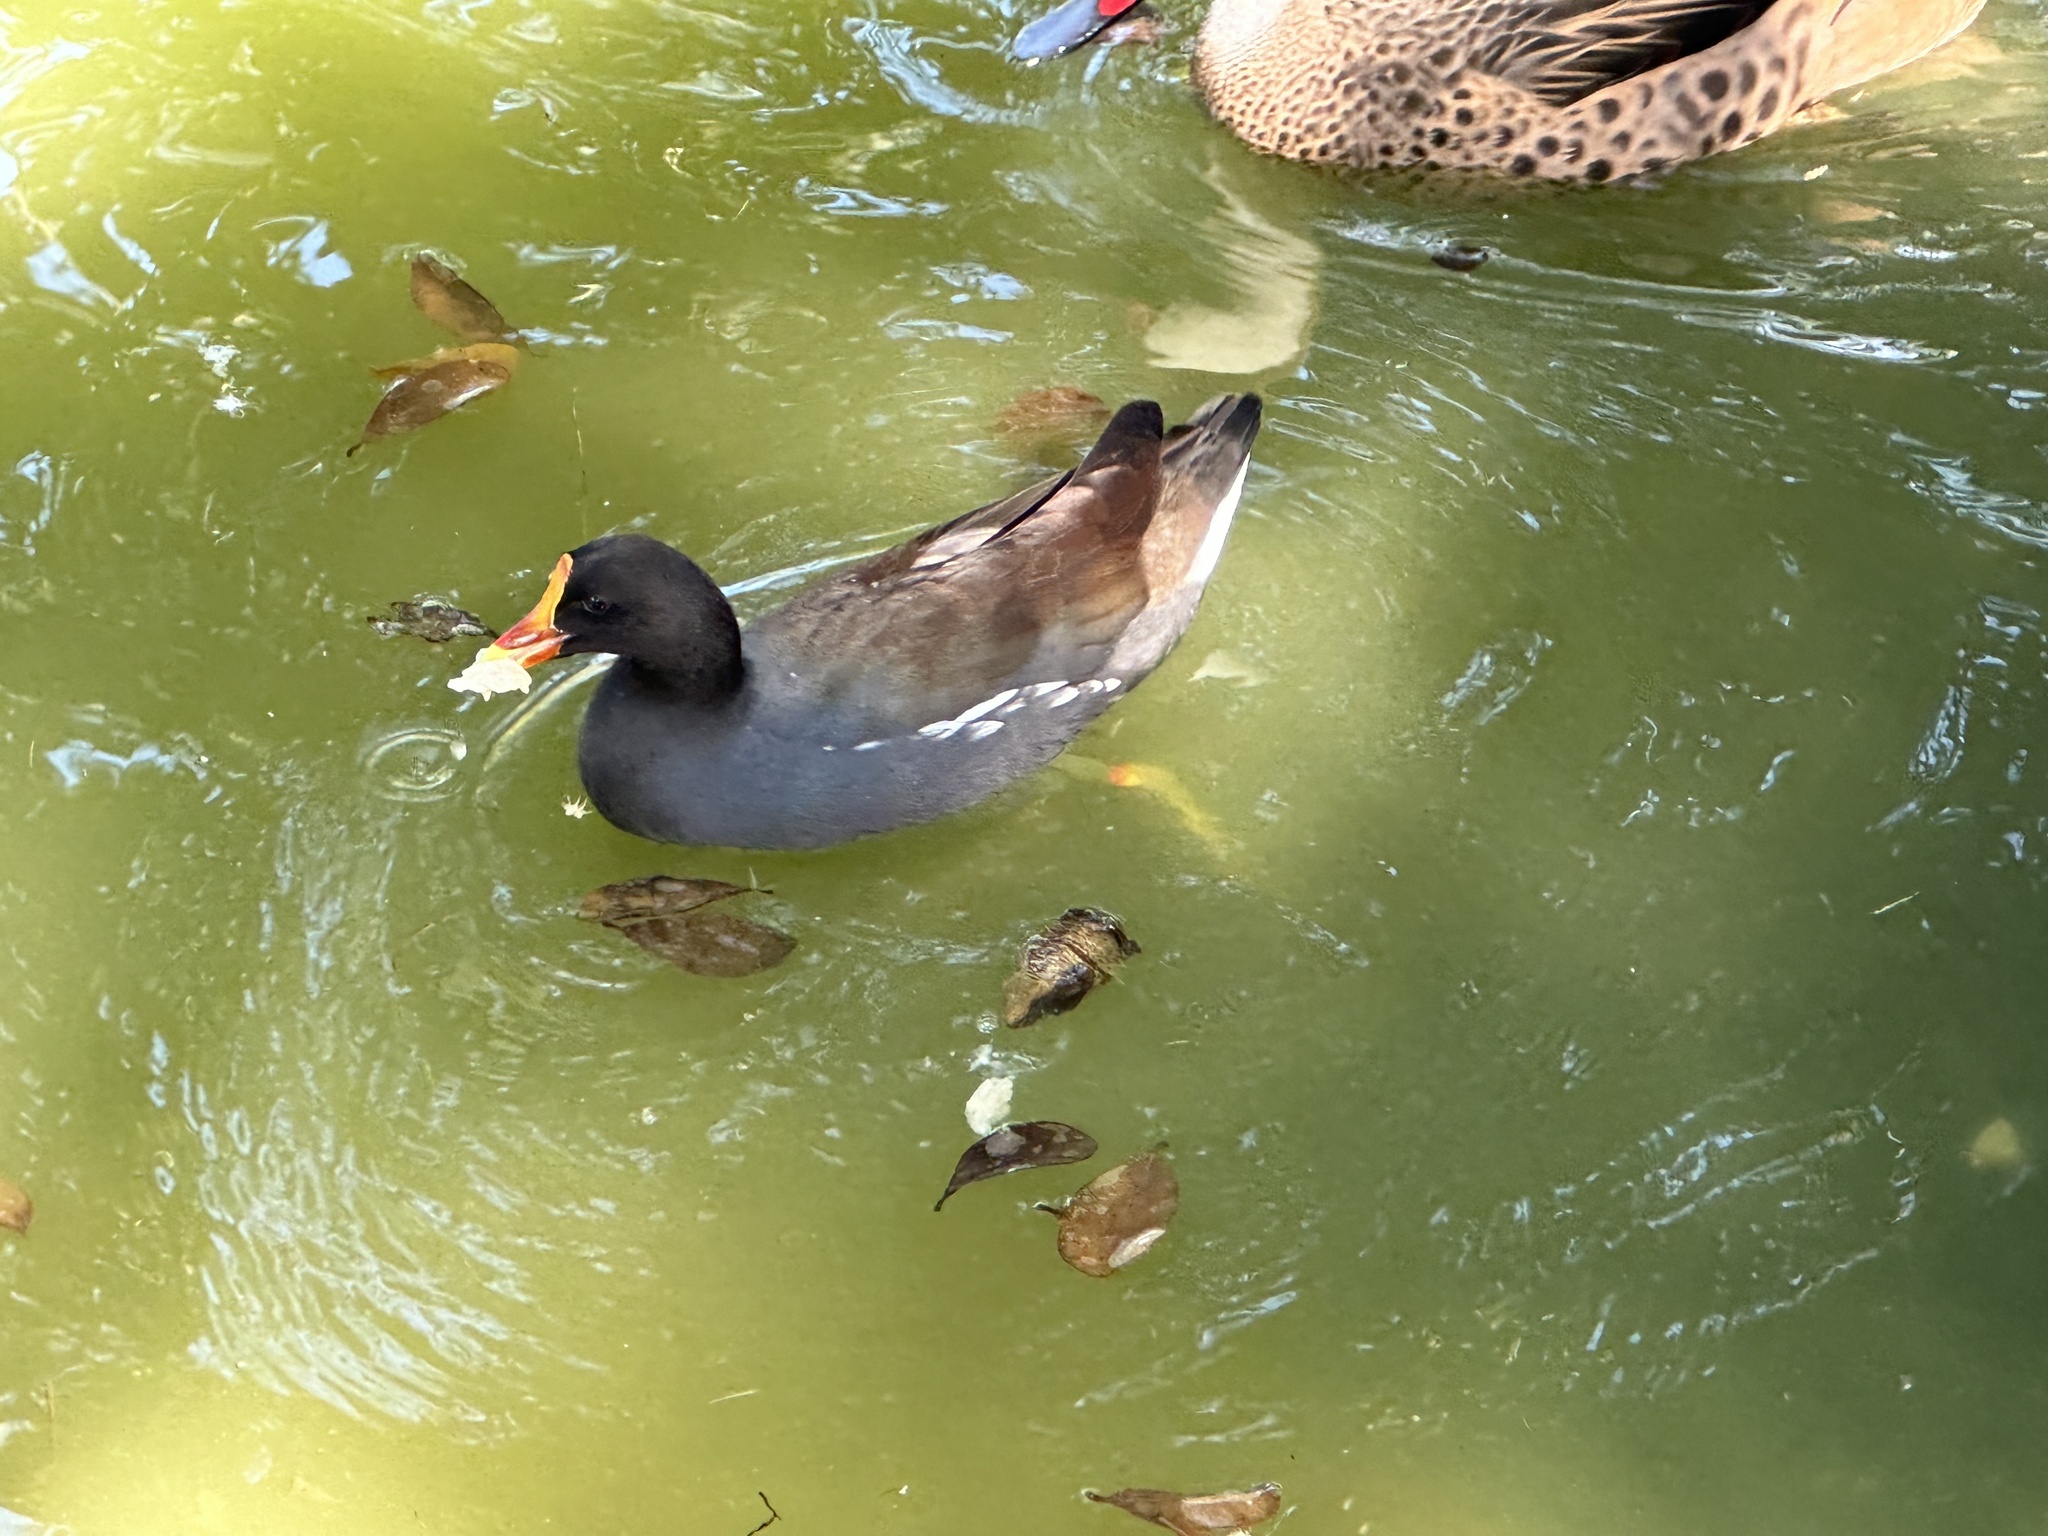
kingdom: Animalia
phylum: Chordata
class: Aves
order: Gruiformes
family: Rallidae
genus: Gallinula
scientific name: Gallinula chloropus
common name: Common moorhen
